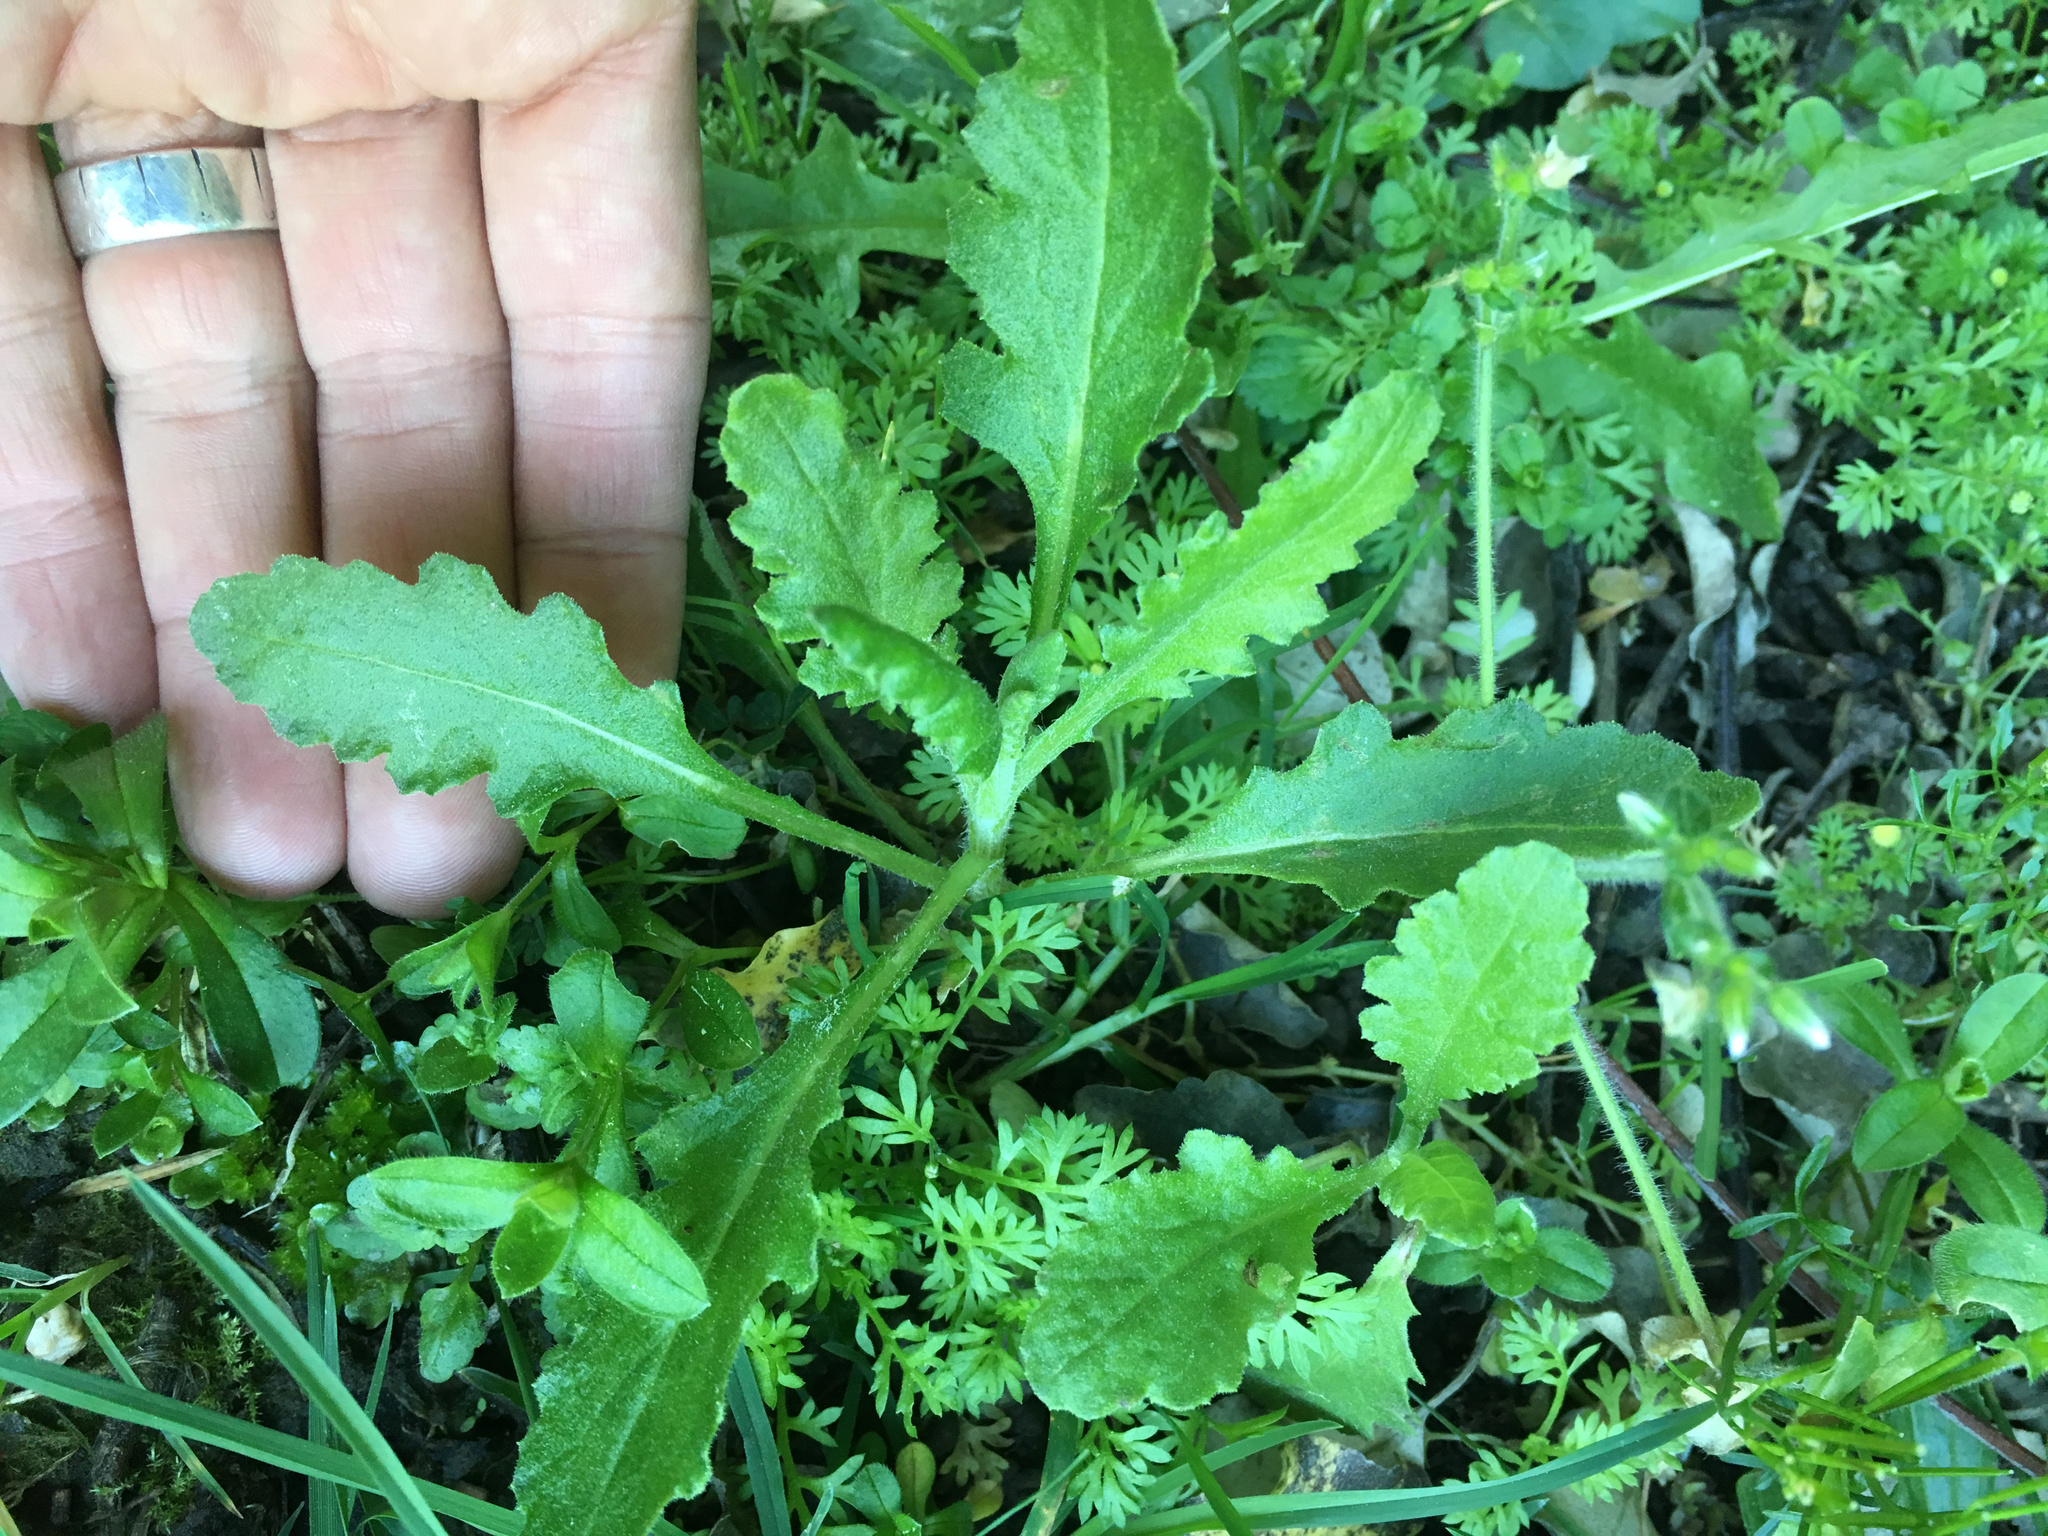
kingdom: Plantae
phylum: Tracheophyta
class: Magnoliopsida
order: Asterales
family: Asteraceae
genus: Senecio
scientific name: Senecio glomeratus
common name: Cutleaf burnweed
